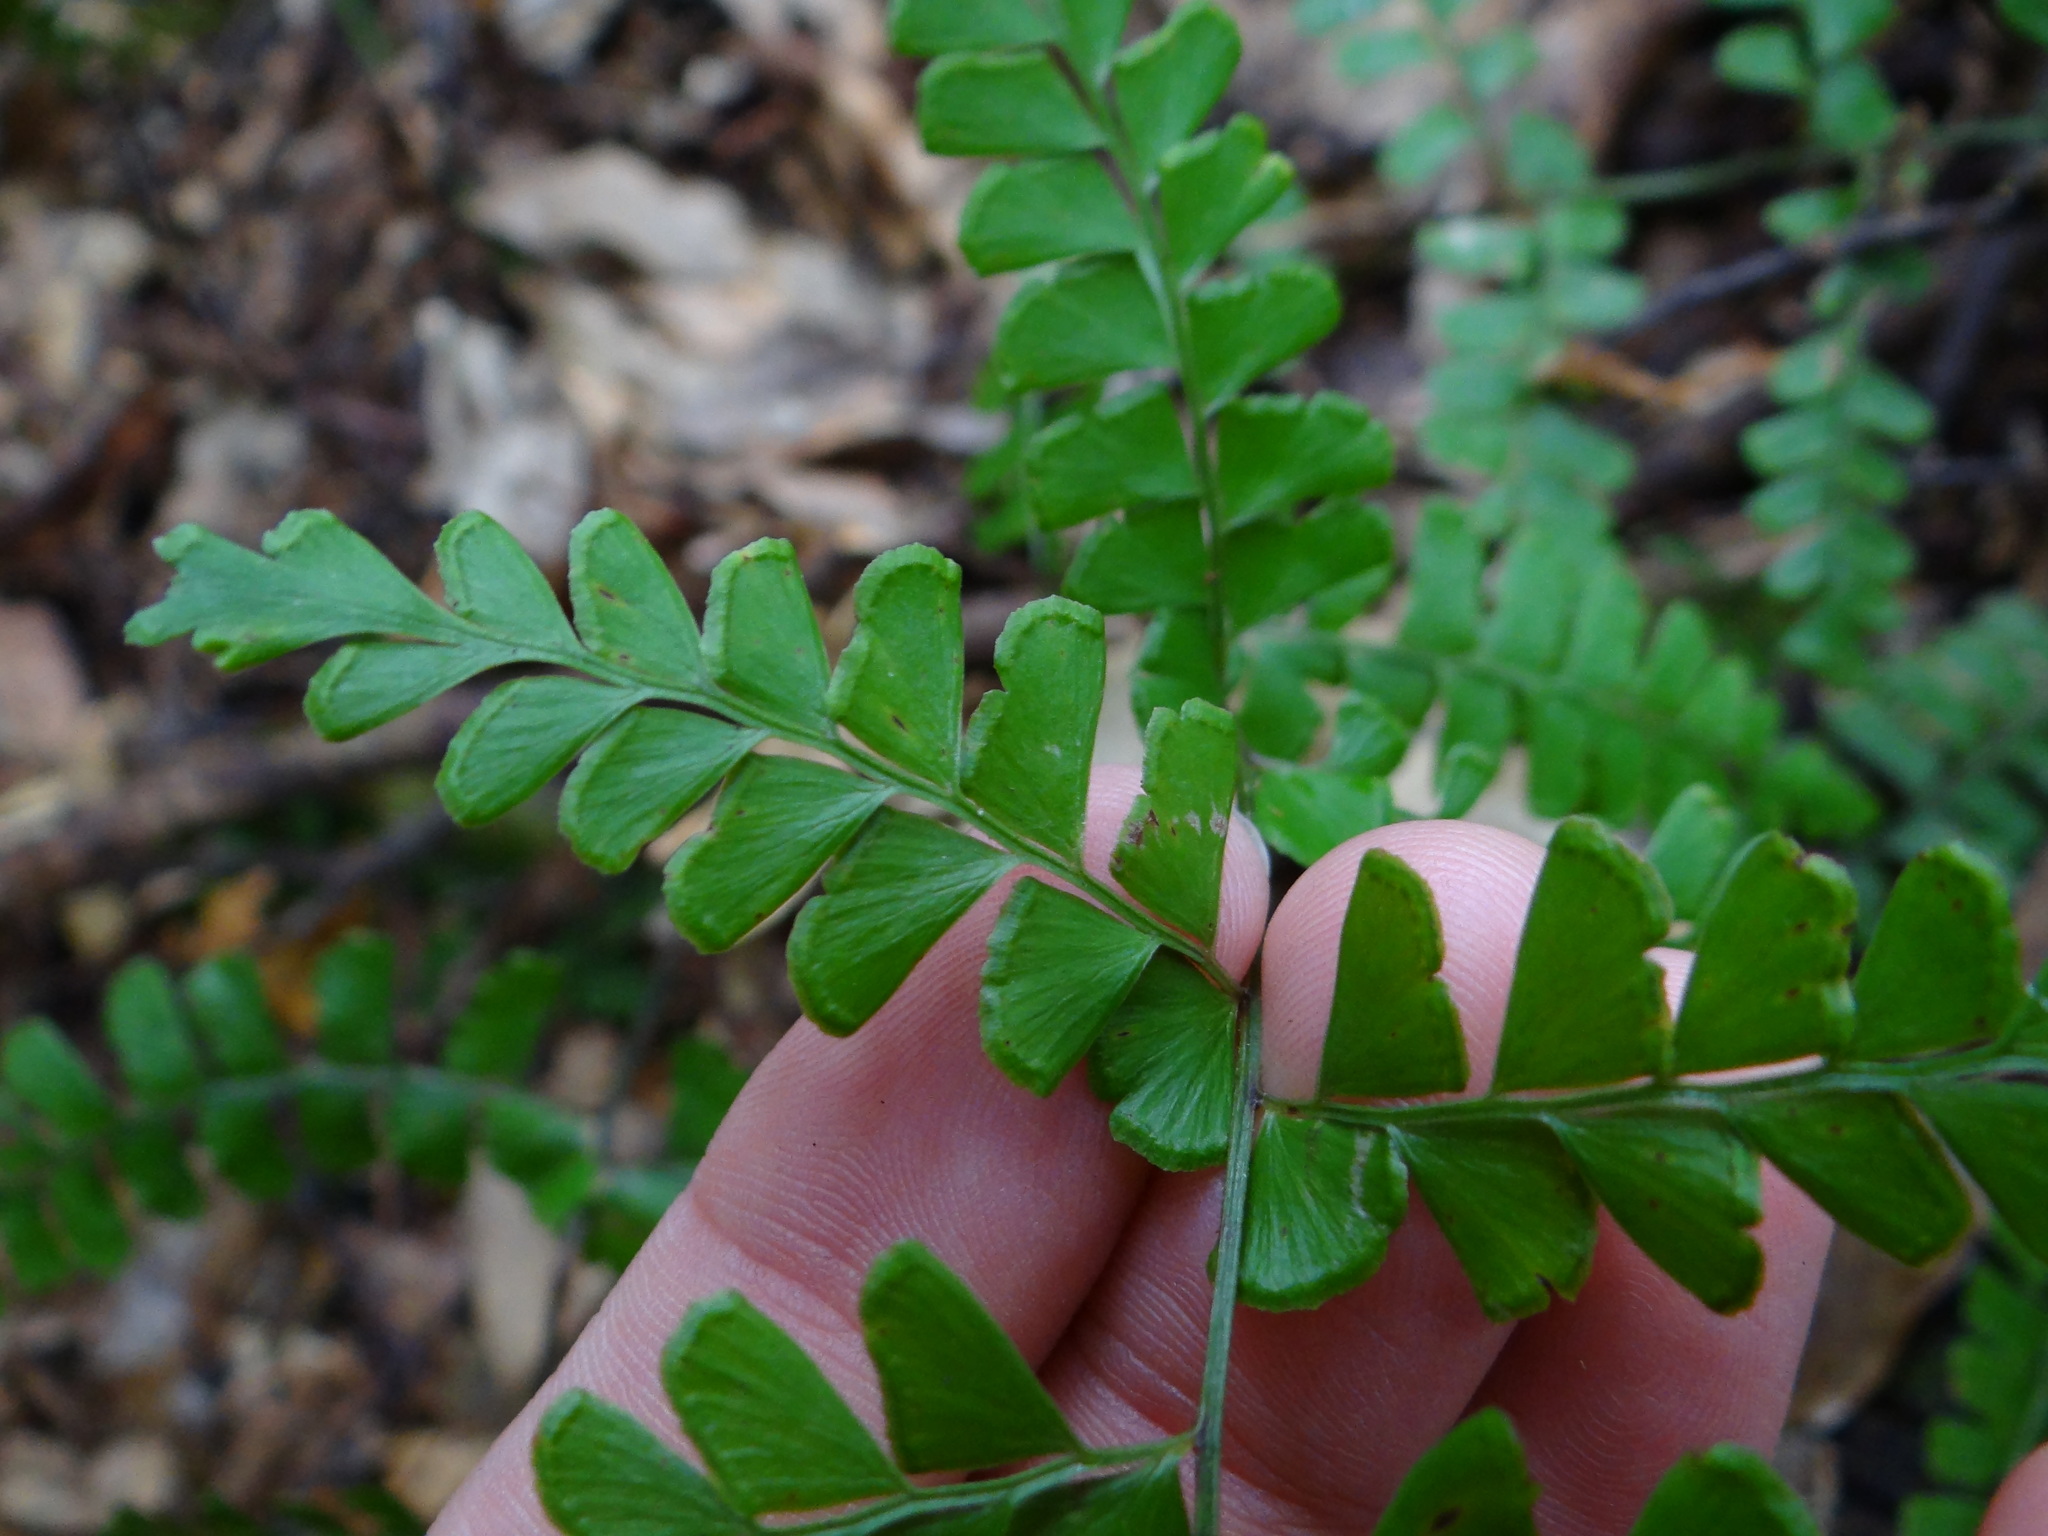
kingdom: Plantae
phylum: Tracheophyta
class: Polypodiopsida
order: Polypodiales
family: Lindsaeaceae
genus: Lindsaea
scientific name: Lindsaea bonii
